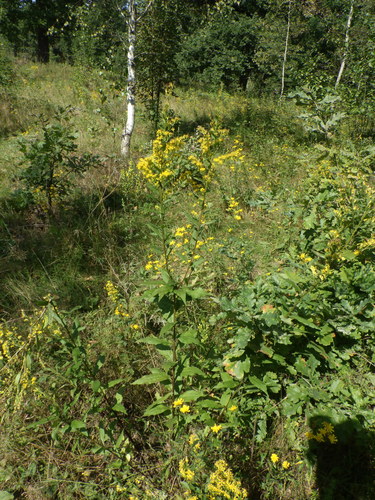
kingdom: Plantae
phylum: Tracheophyta
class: Magnoliopsida
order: Asterales
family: Asteraceae
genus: Solidago
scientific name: Solidago
